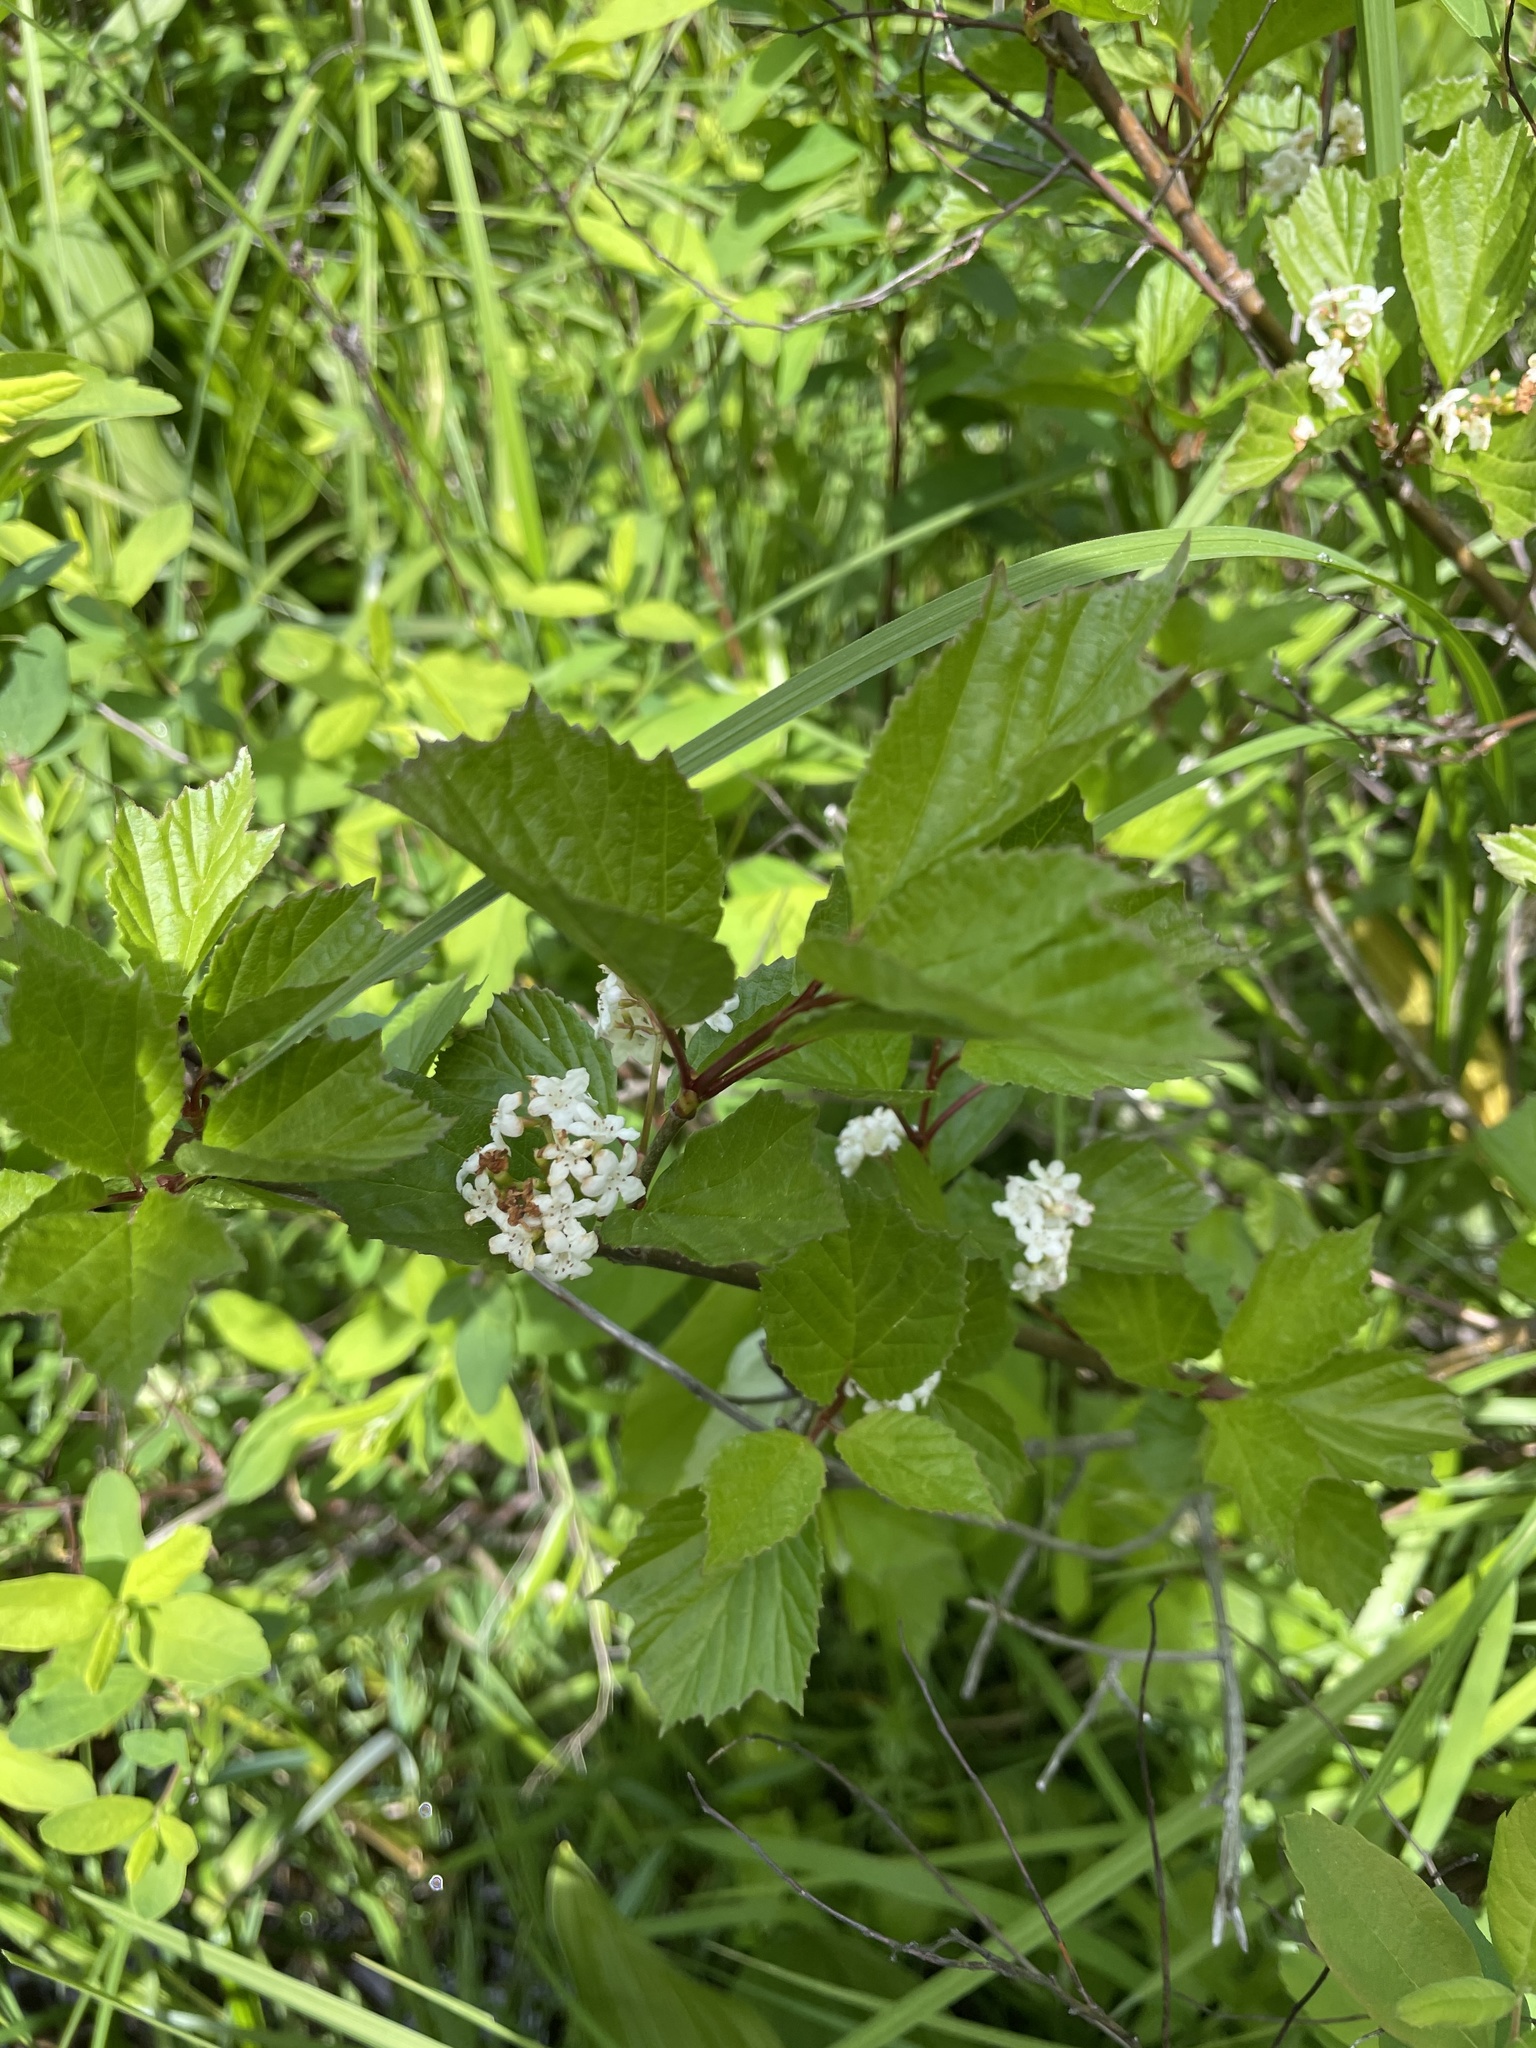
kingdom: Plantae
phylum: Tracheophyta
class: Magnoliopsida
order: Dipsacales
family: Viburnaceae
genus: Viburnum
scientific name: Viburnum edule
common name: Mooseberry
